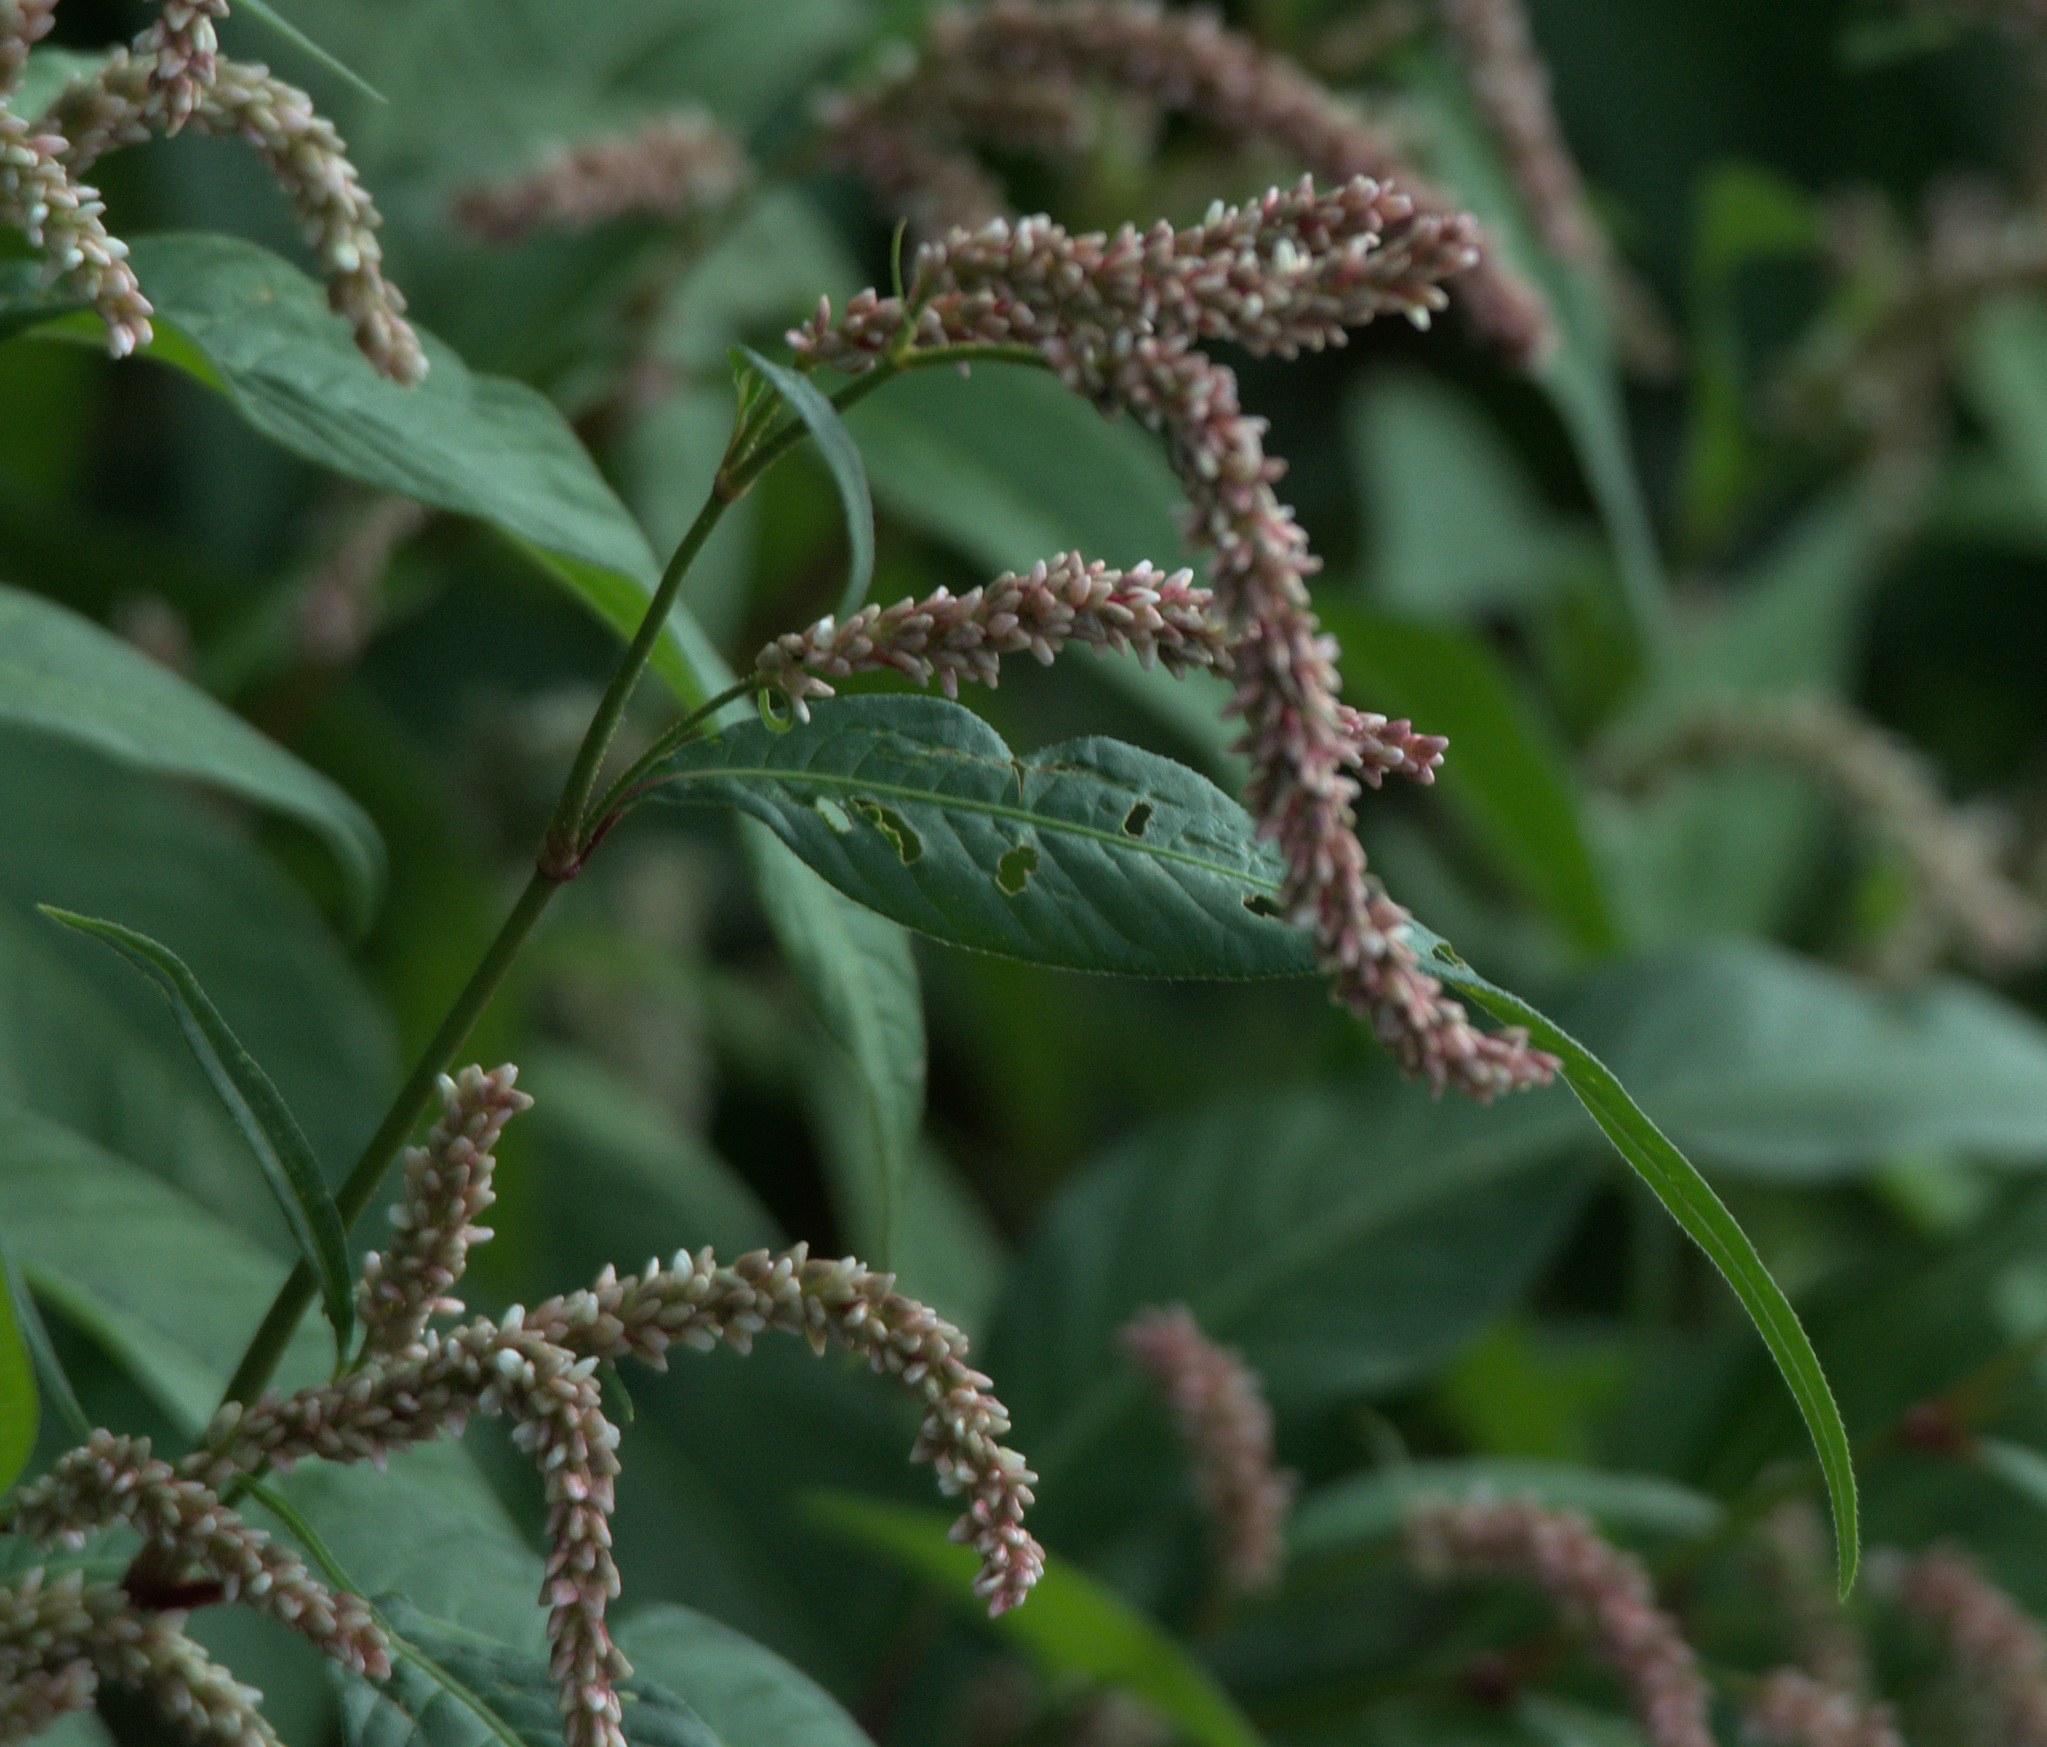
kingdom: Plantae
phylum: Tracheophyta
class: Magnoliopsida
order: Caryophyllales
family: Polygonaceae
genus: Persicaria
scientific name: Persicaria lapathifolia
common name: Curlytop knotweed
